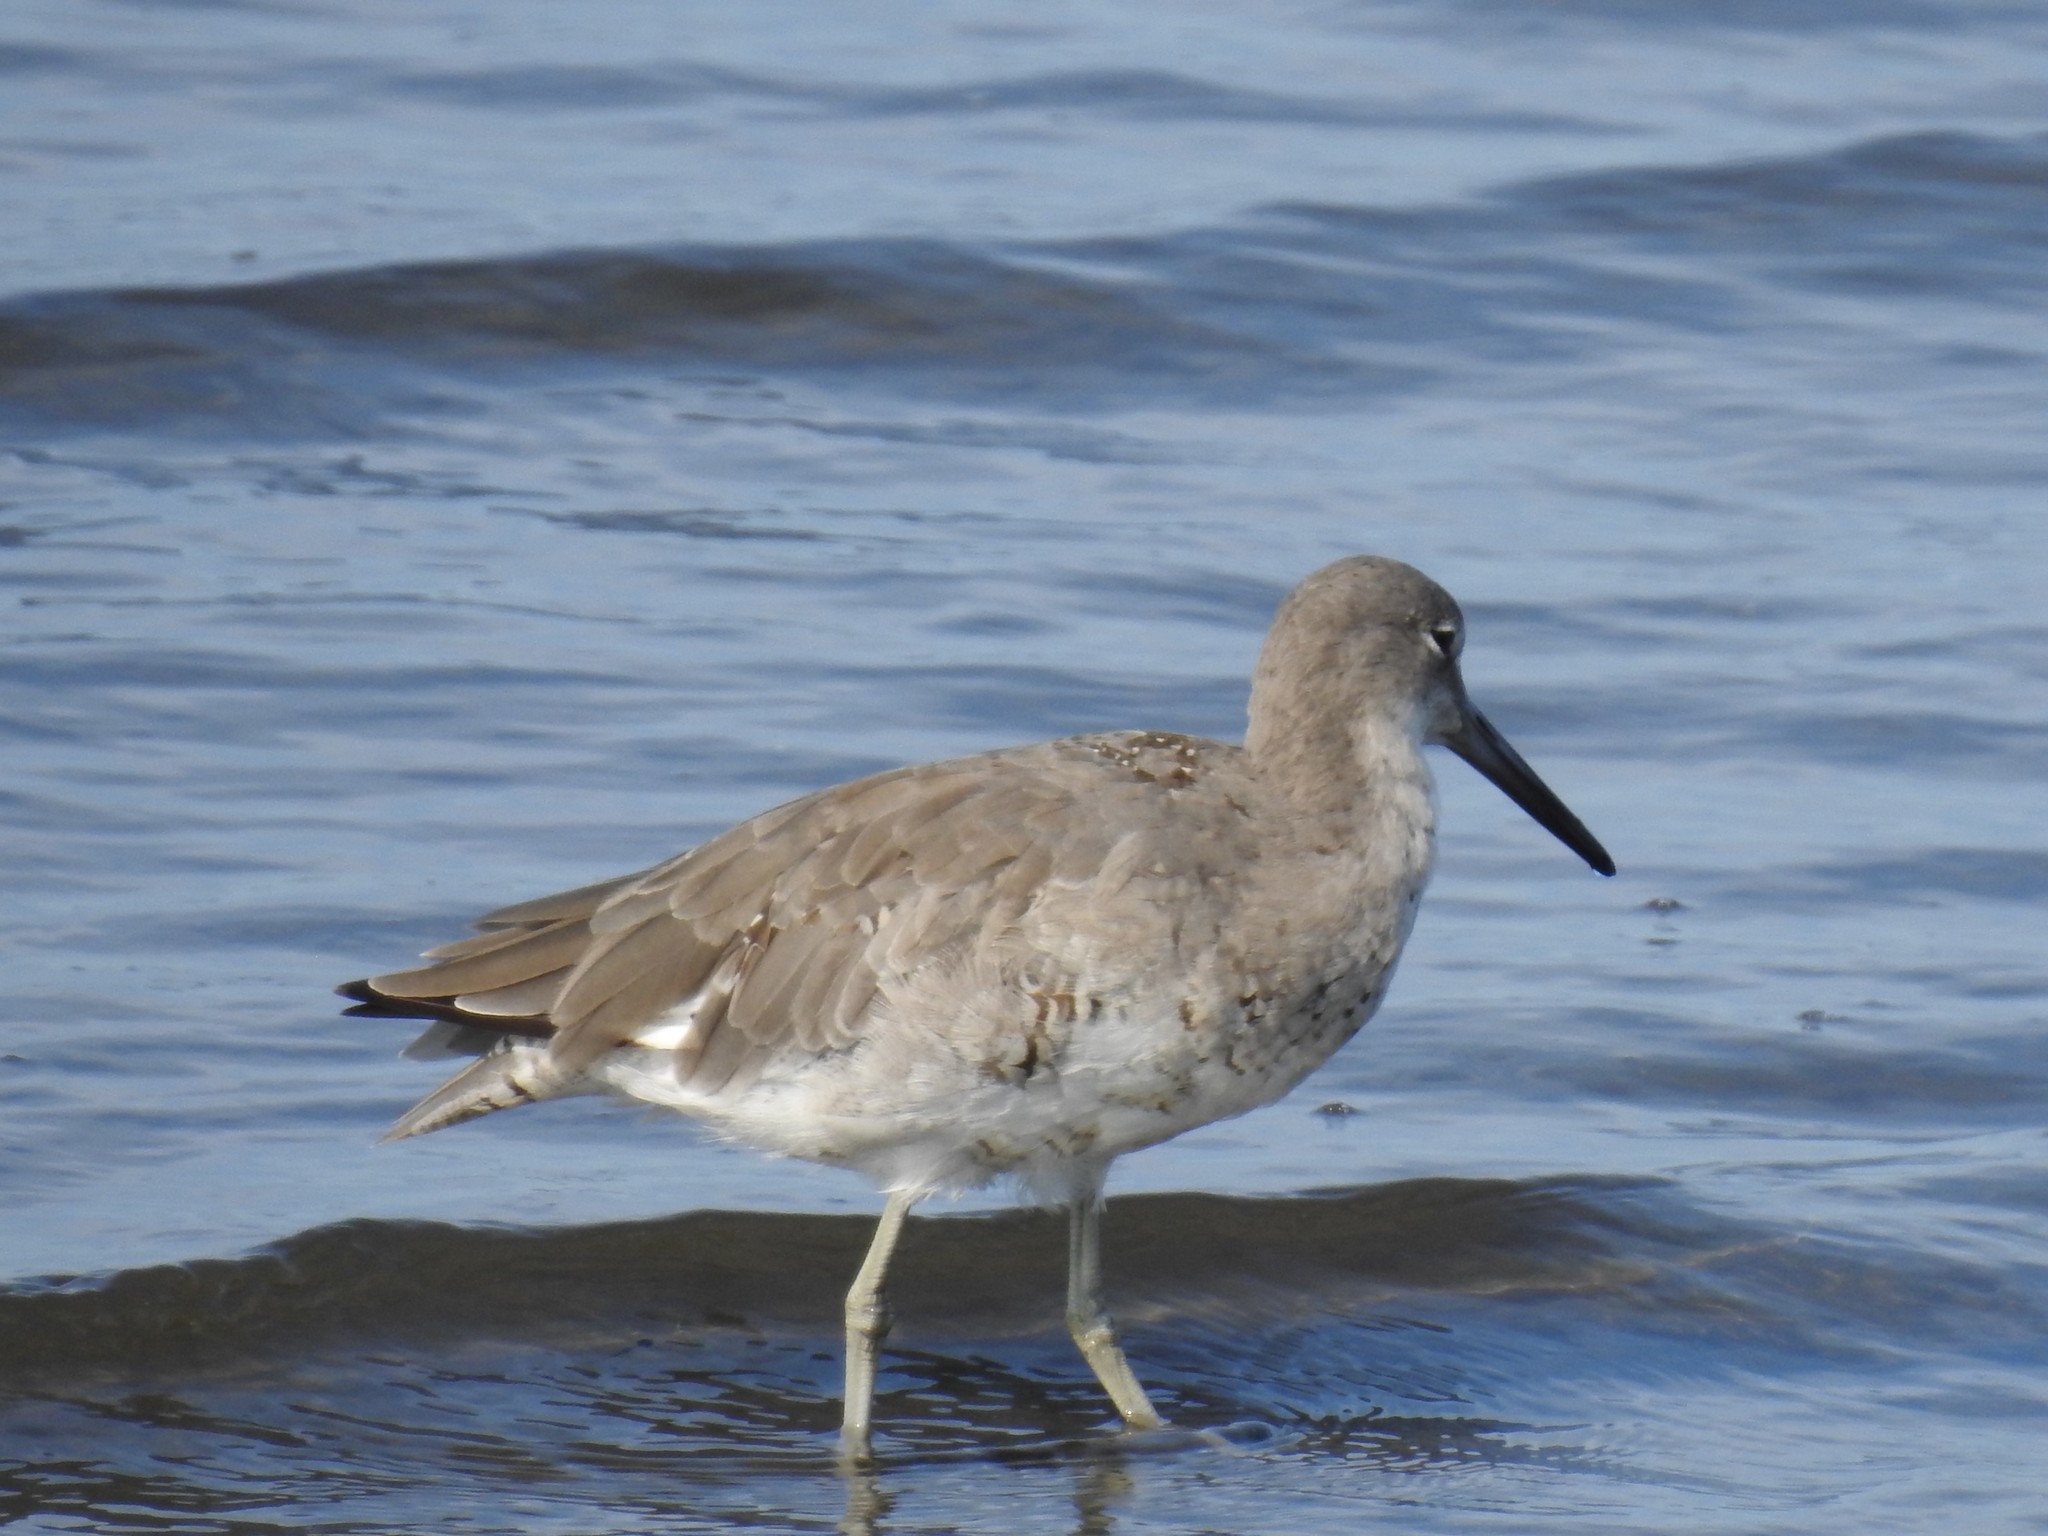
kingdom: Animalia
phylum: Chordata
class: Aves
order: Charadriiformes
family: Scolopacidae
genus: Tringa
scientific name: Tringa semipalmata
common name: Willet
